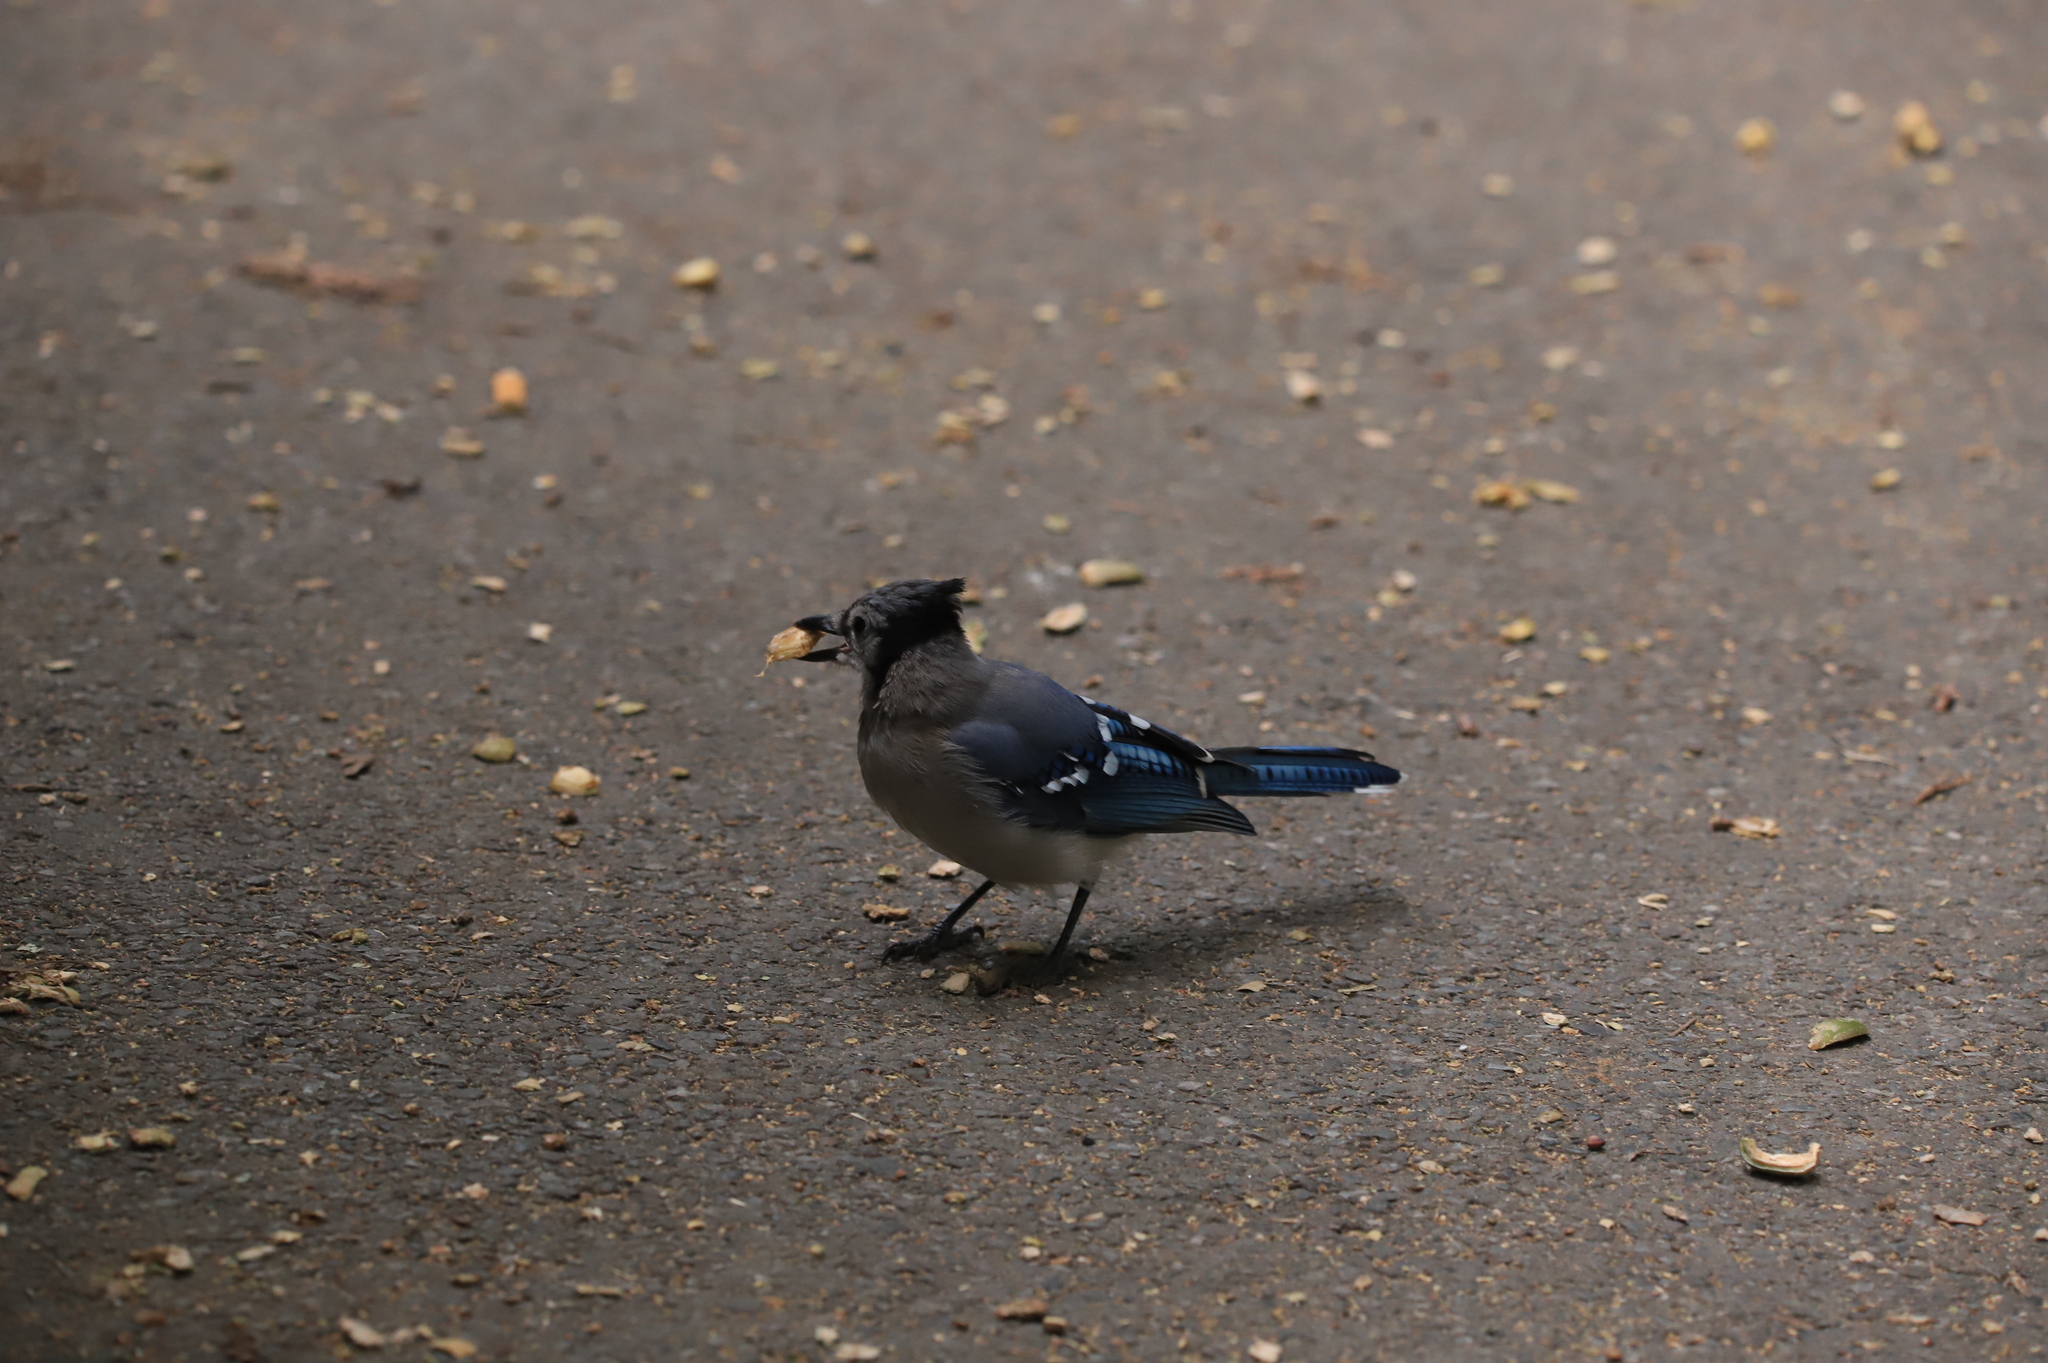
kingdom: Animalia
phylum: Chordata
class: Aves
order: Passeriformes
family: Corvidae
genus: Cyanocitta
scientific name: Cyanocitta cristata
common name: Blue jay
